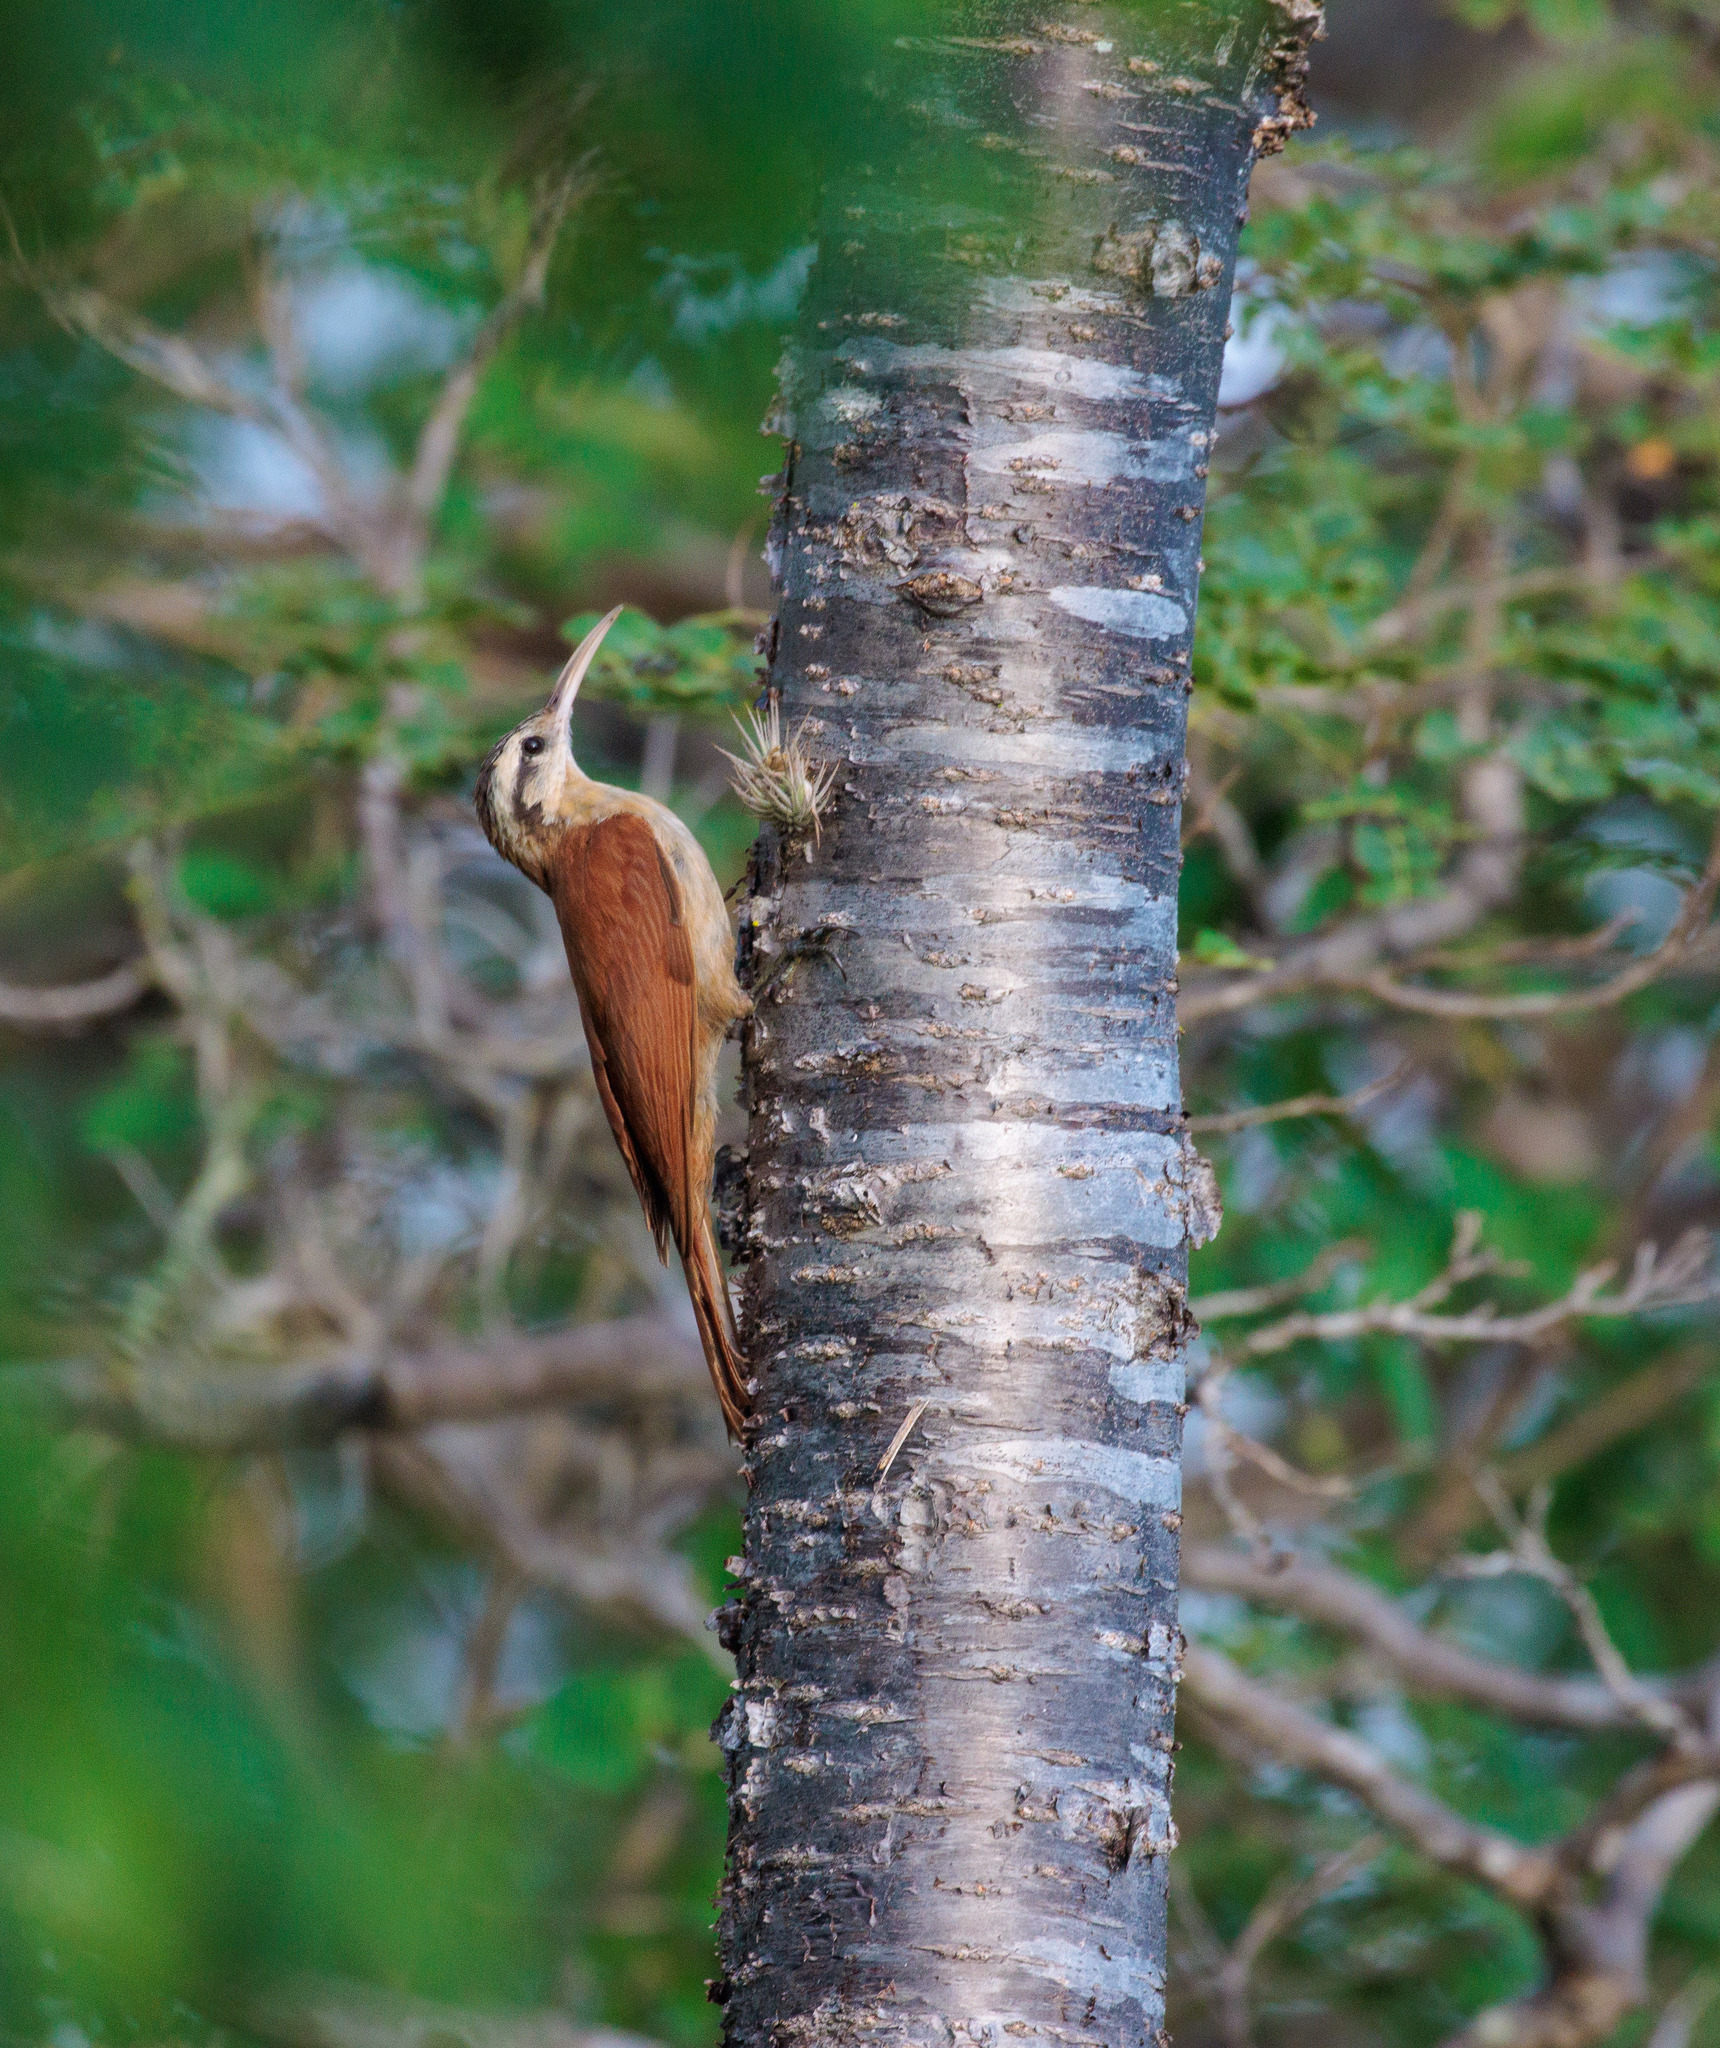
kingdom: Animalia
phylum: Chordata
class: Aves
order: Passeriformes
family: Furnariidae
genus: Lepidocolaptes
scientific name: Lepidocolaptes angustirostris
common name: Narrow-billed woodcreeper
